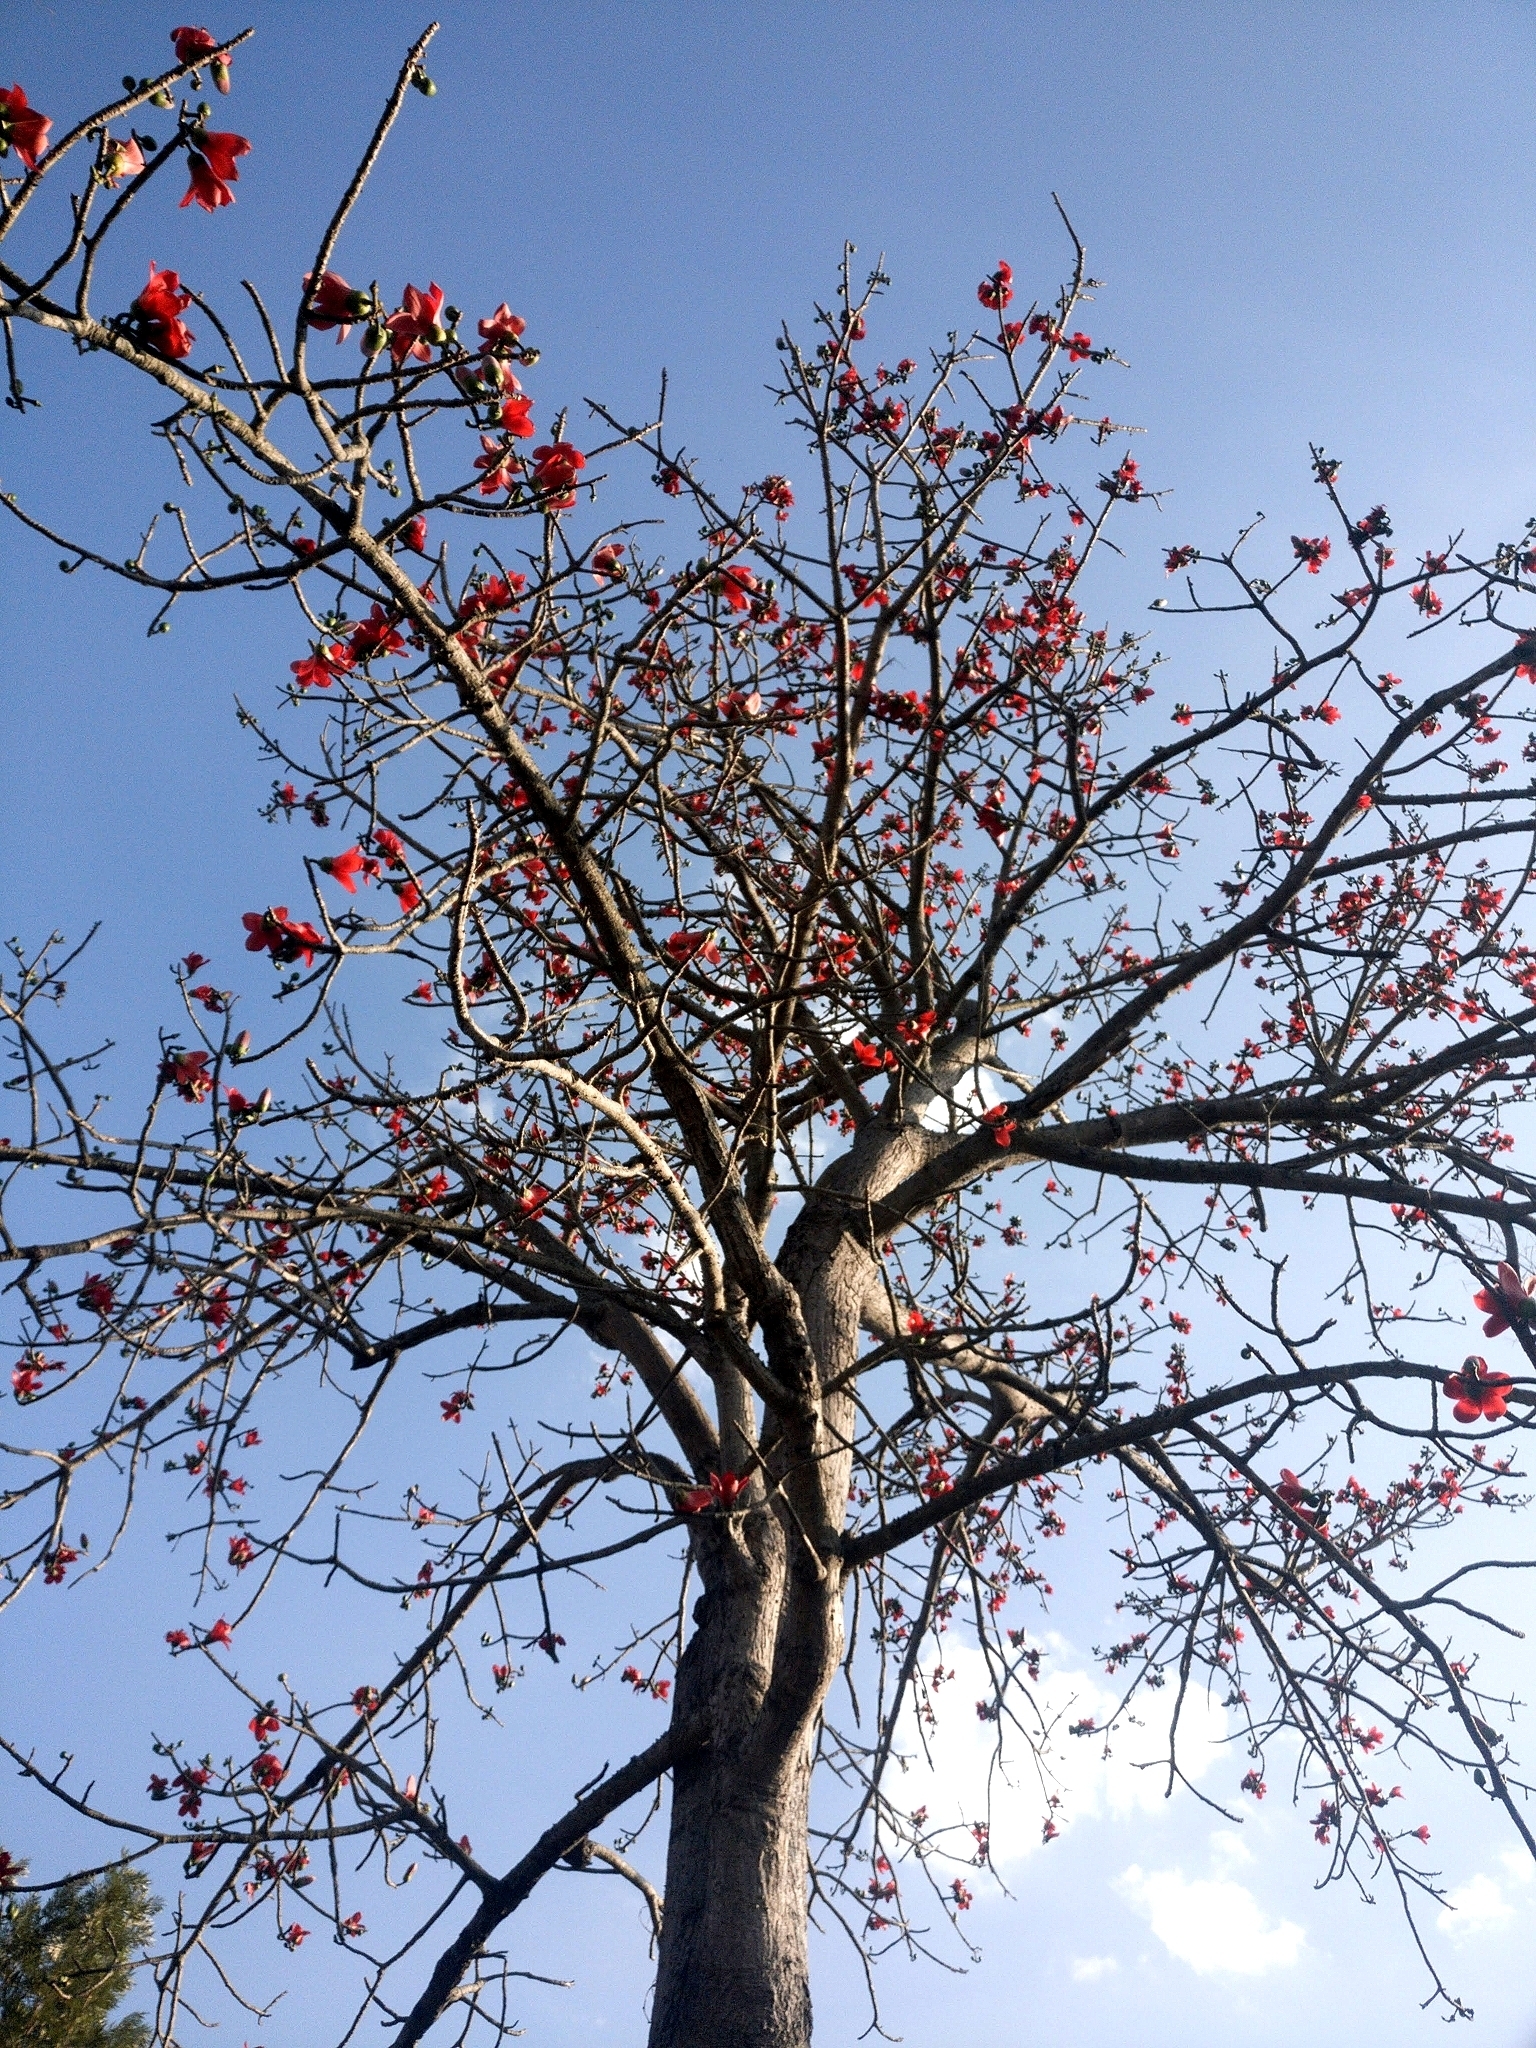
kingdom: Plantae
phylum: Tracheophyta
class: Magnoliopsida
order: Malvales
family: Malvaceae
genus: Bombax
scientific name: Bombax ceiba
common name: Northern-cottonwood
